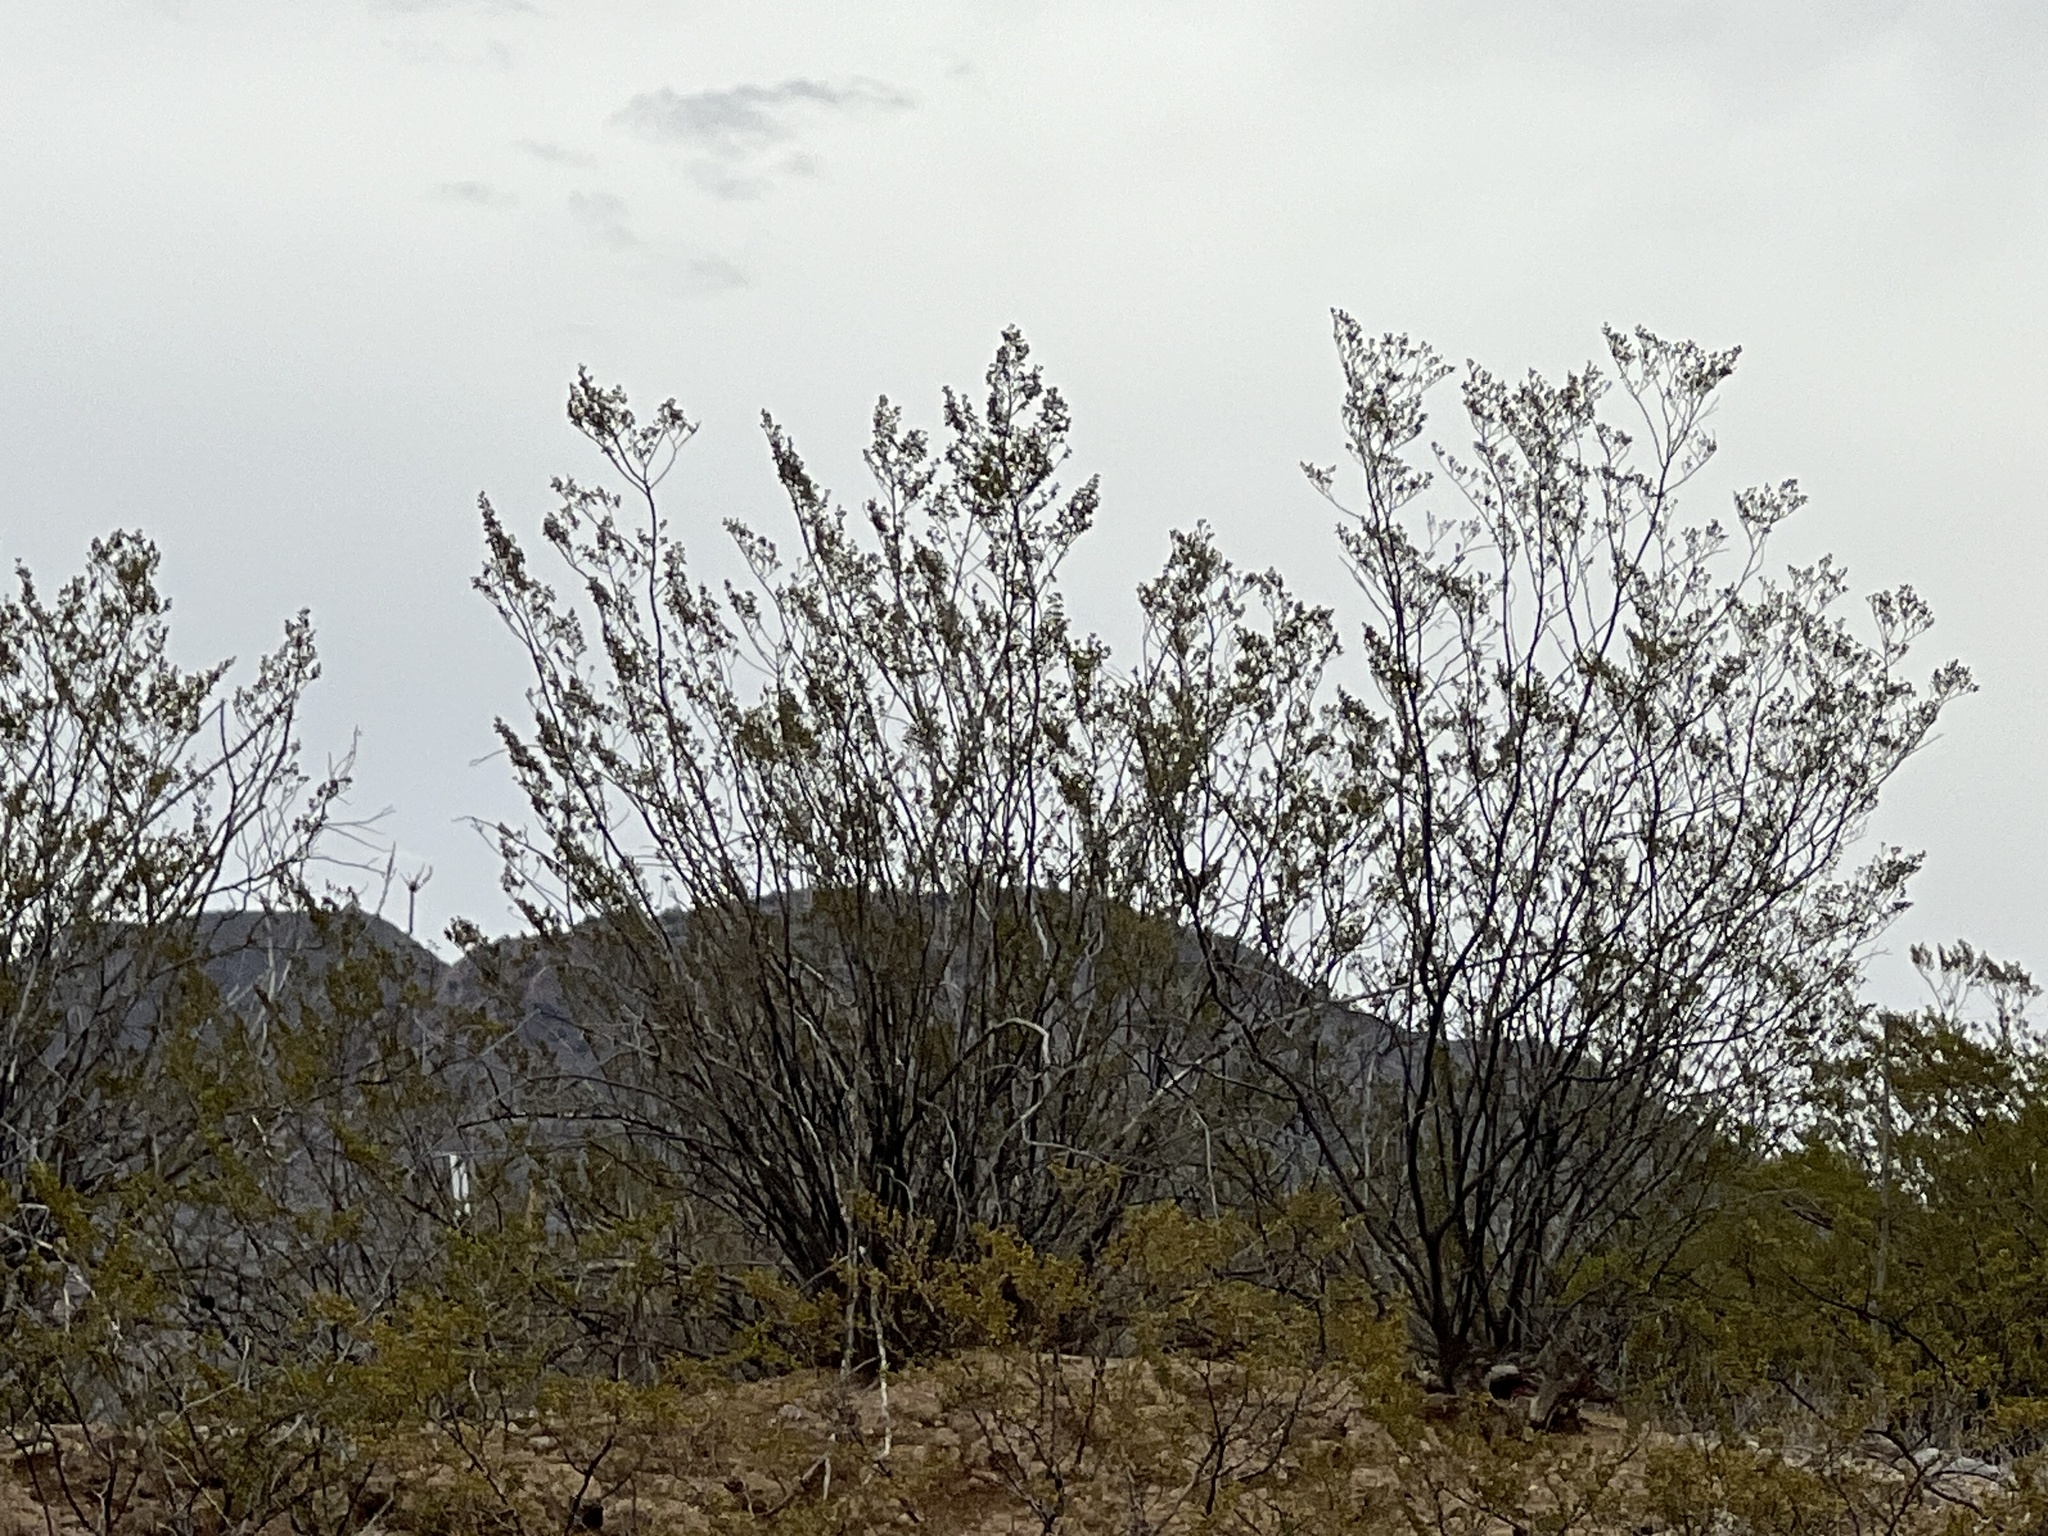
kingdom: Plantae
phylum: Tracheophyta
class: Magnoliopsida
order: Zygophyllales
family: Zygophyllaceae
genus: Larrea
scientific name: Larrea tridentata
